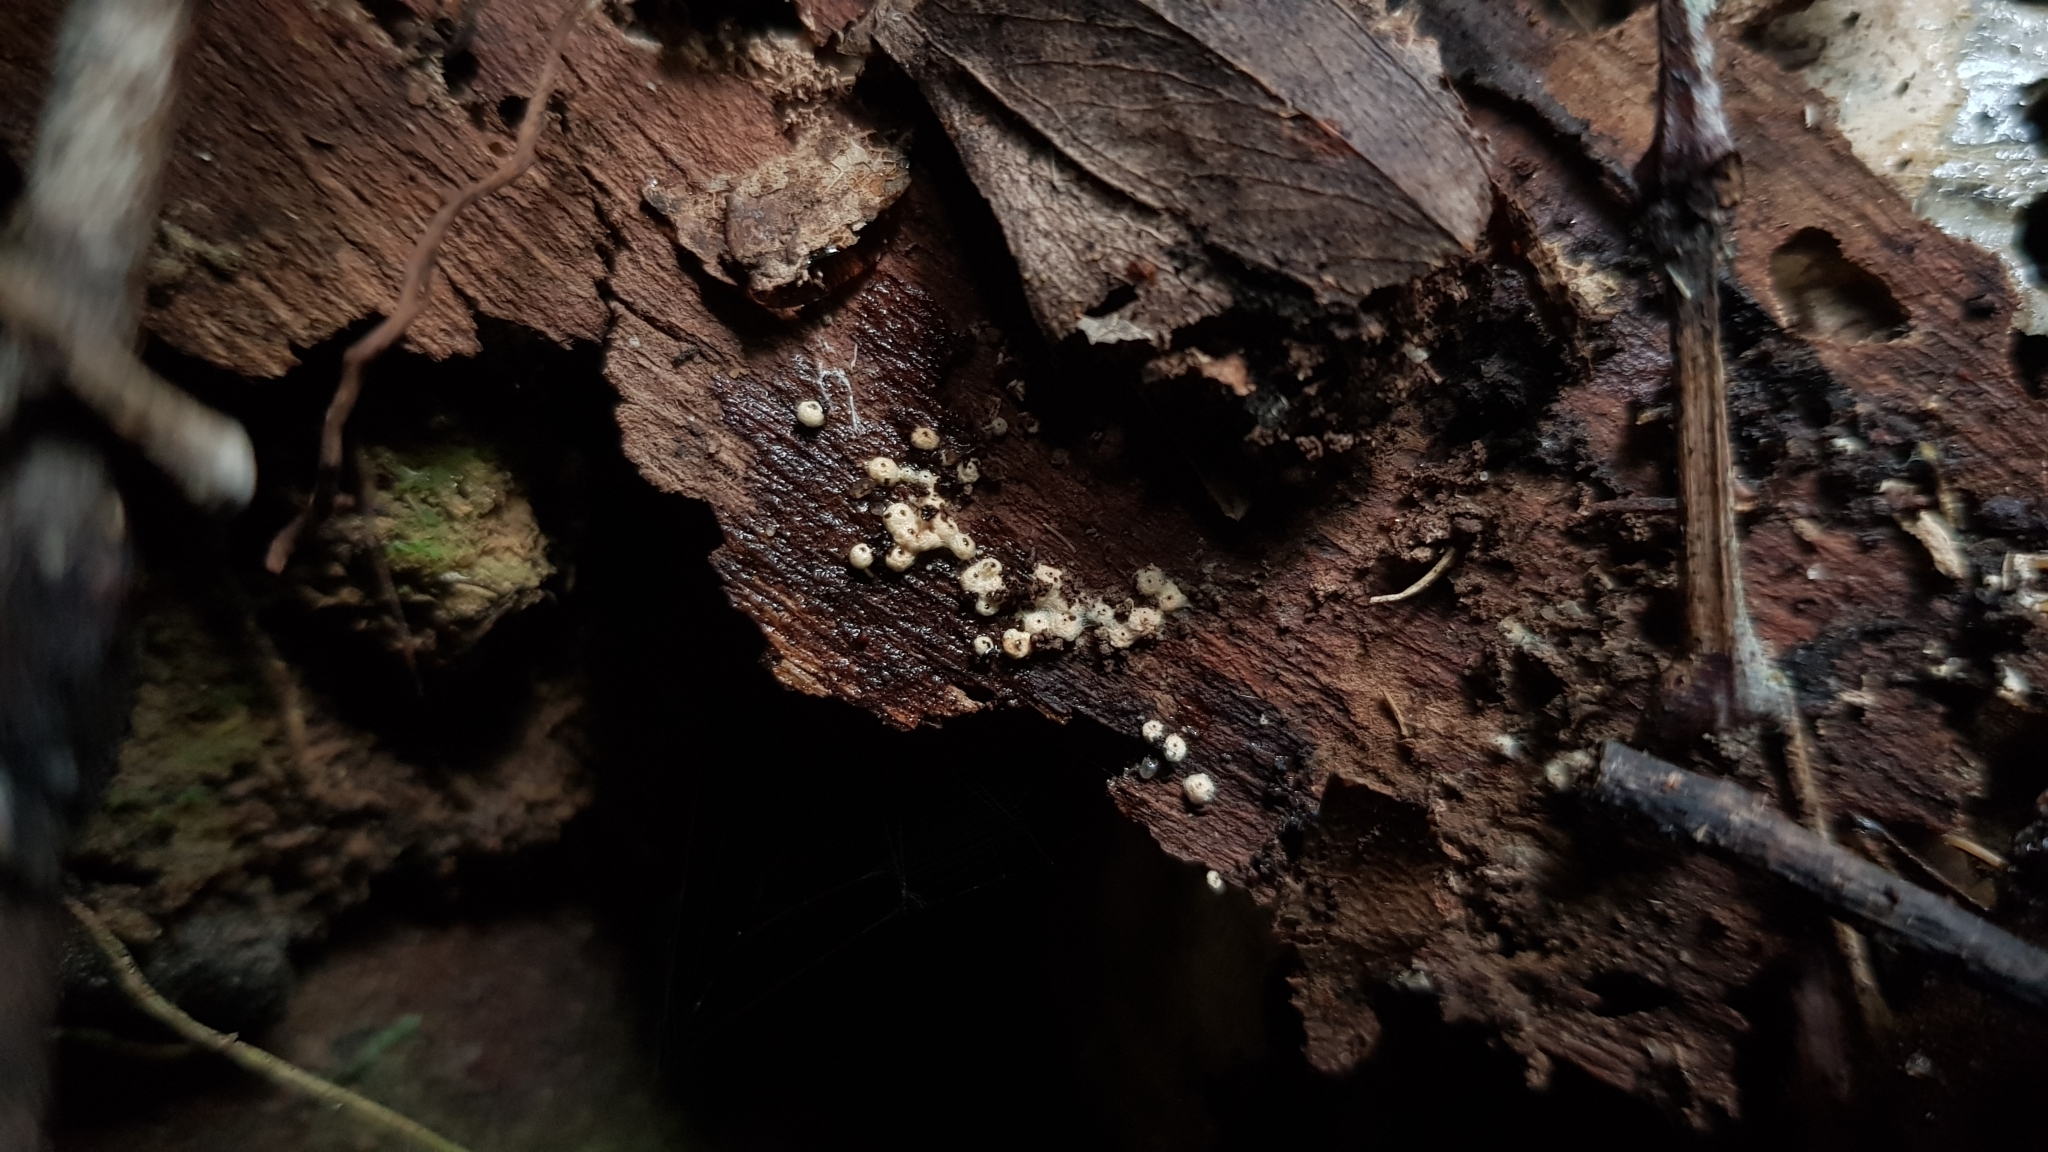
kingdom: Fungi
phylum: Ascomycota
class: Sordariomycetes
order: Sordariales
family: Lasiosphaeriaceae
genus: Lasiosphaeria
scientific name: Lasiosphaeria ovina
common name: Woolly woodwart
